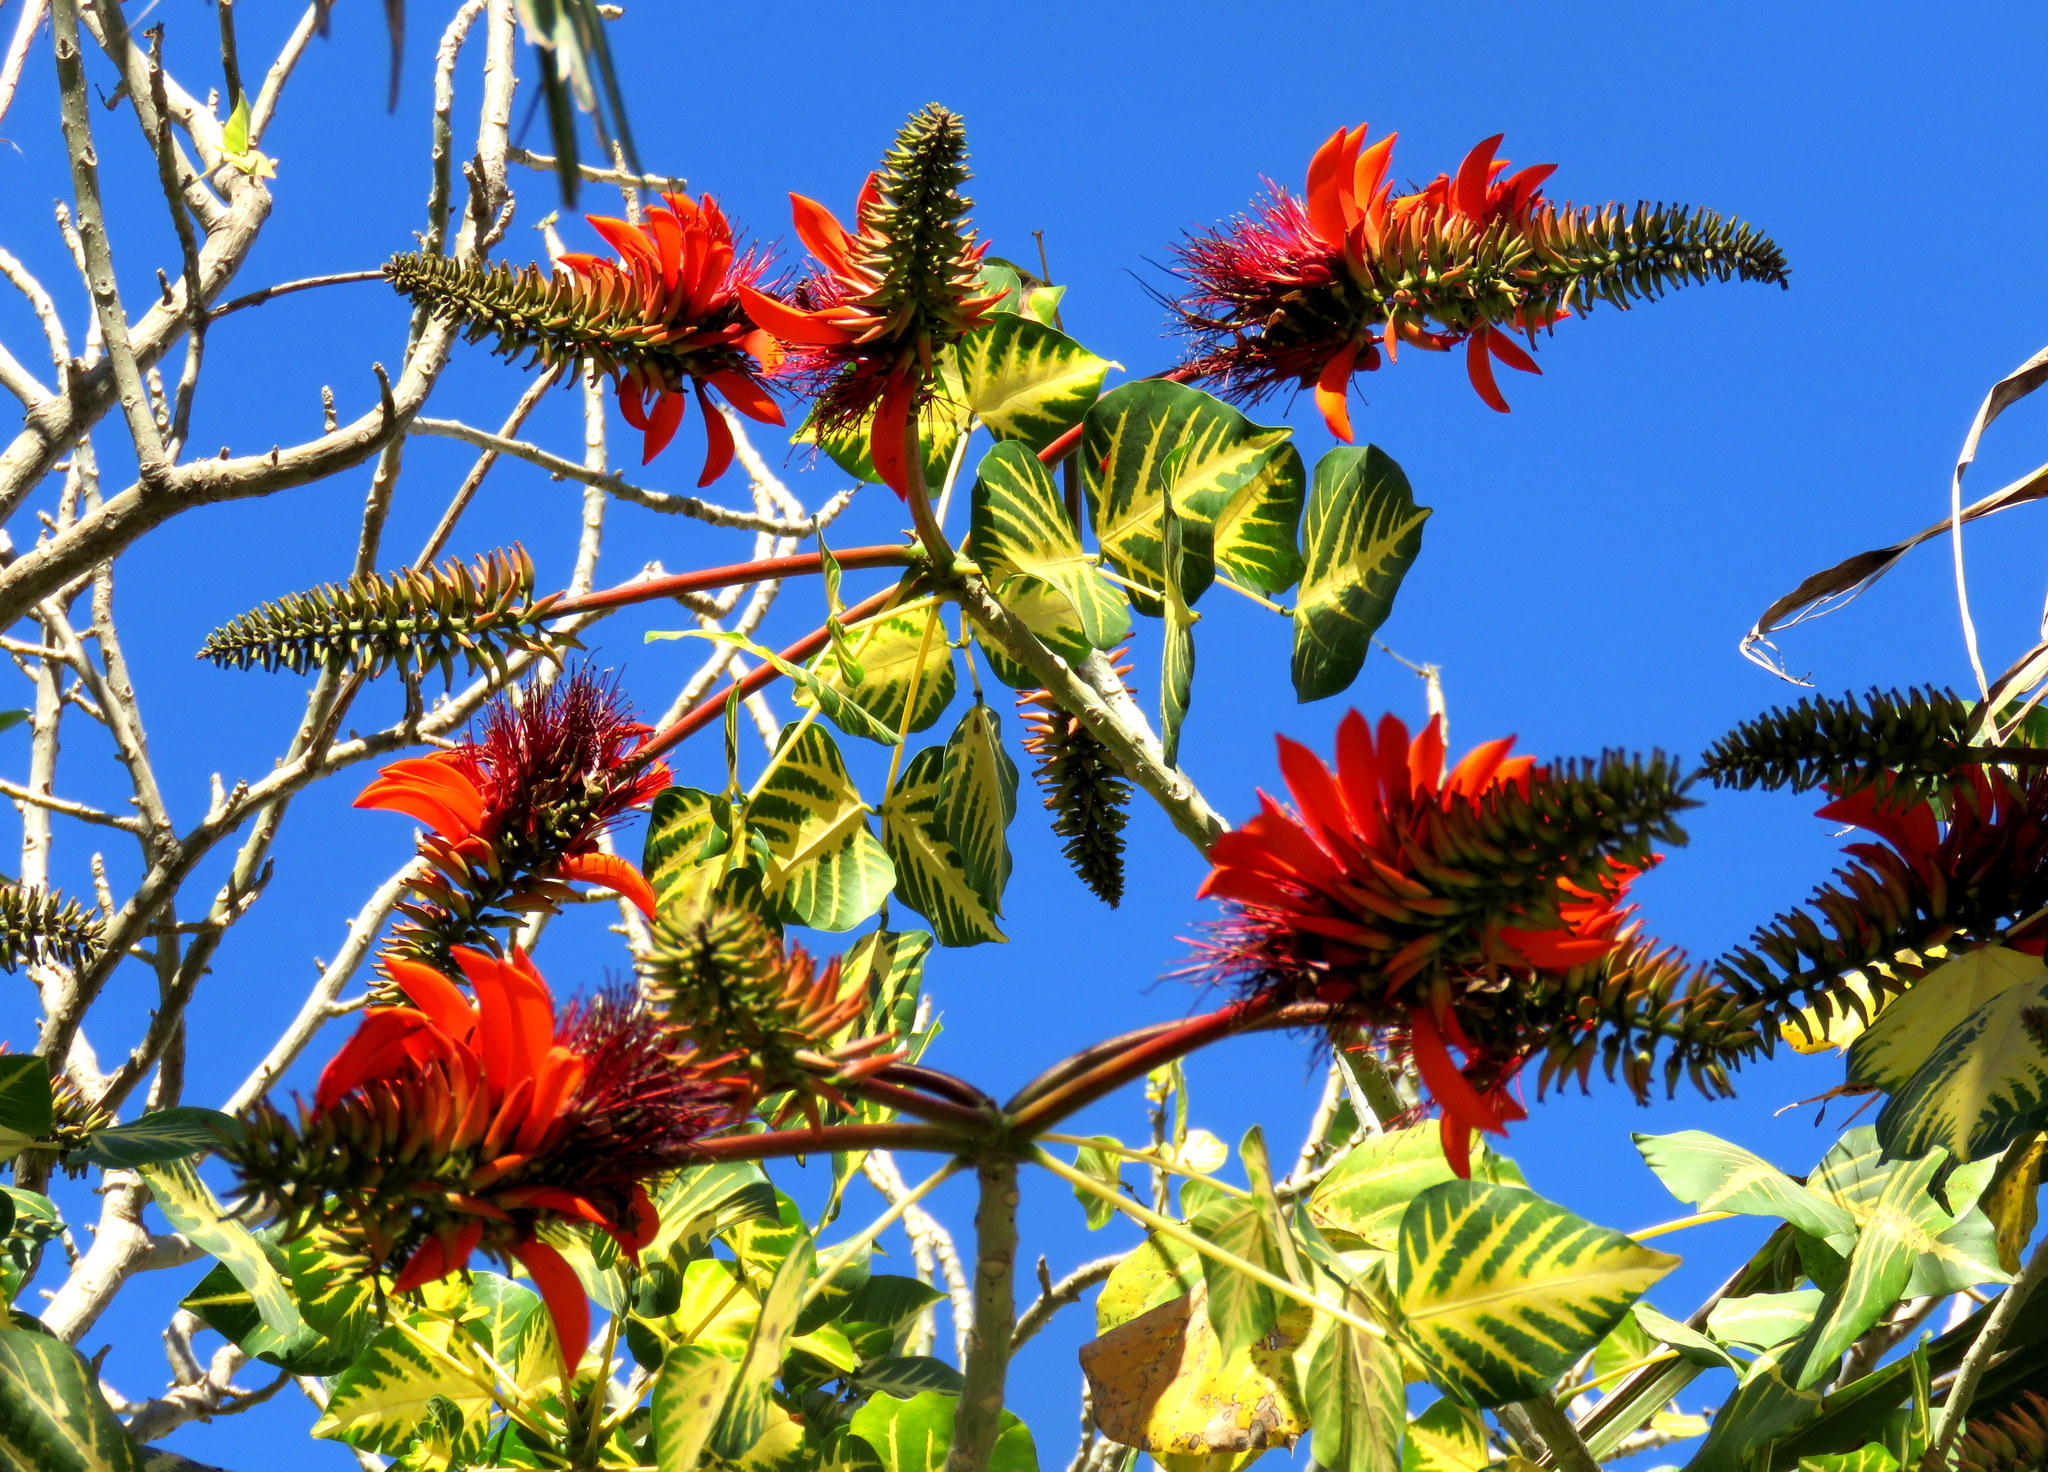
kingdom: Plantae
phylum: Tracheophyta
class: Magnoliopsida
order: Fabales
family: Fabaceae
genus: Erythrina
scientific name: Erythrina variegata
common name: Indian coral tree
